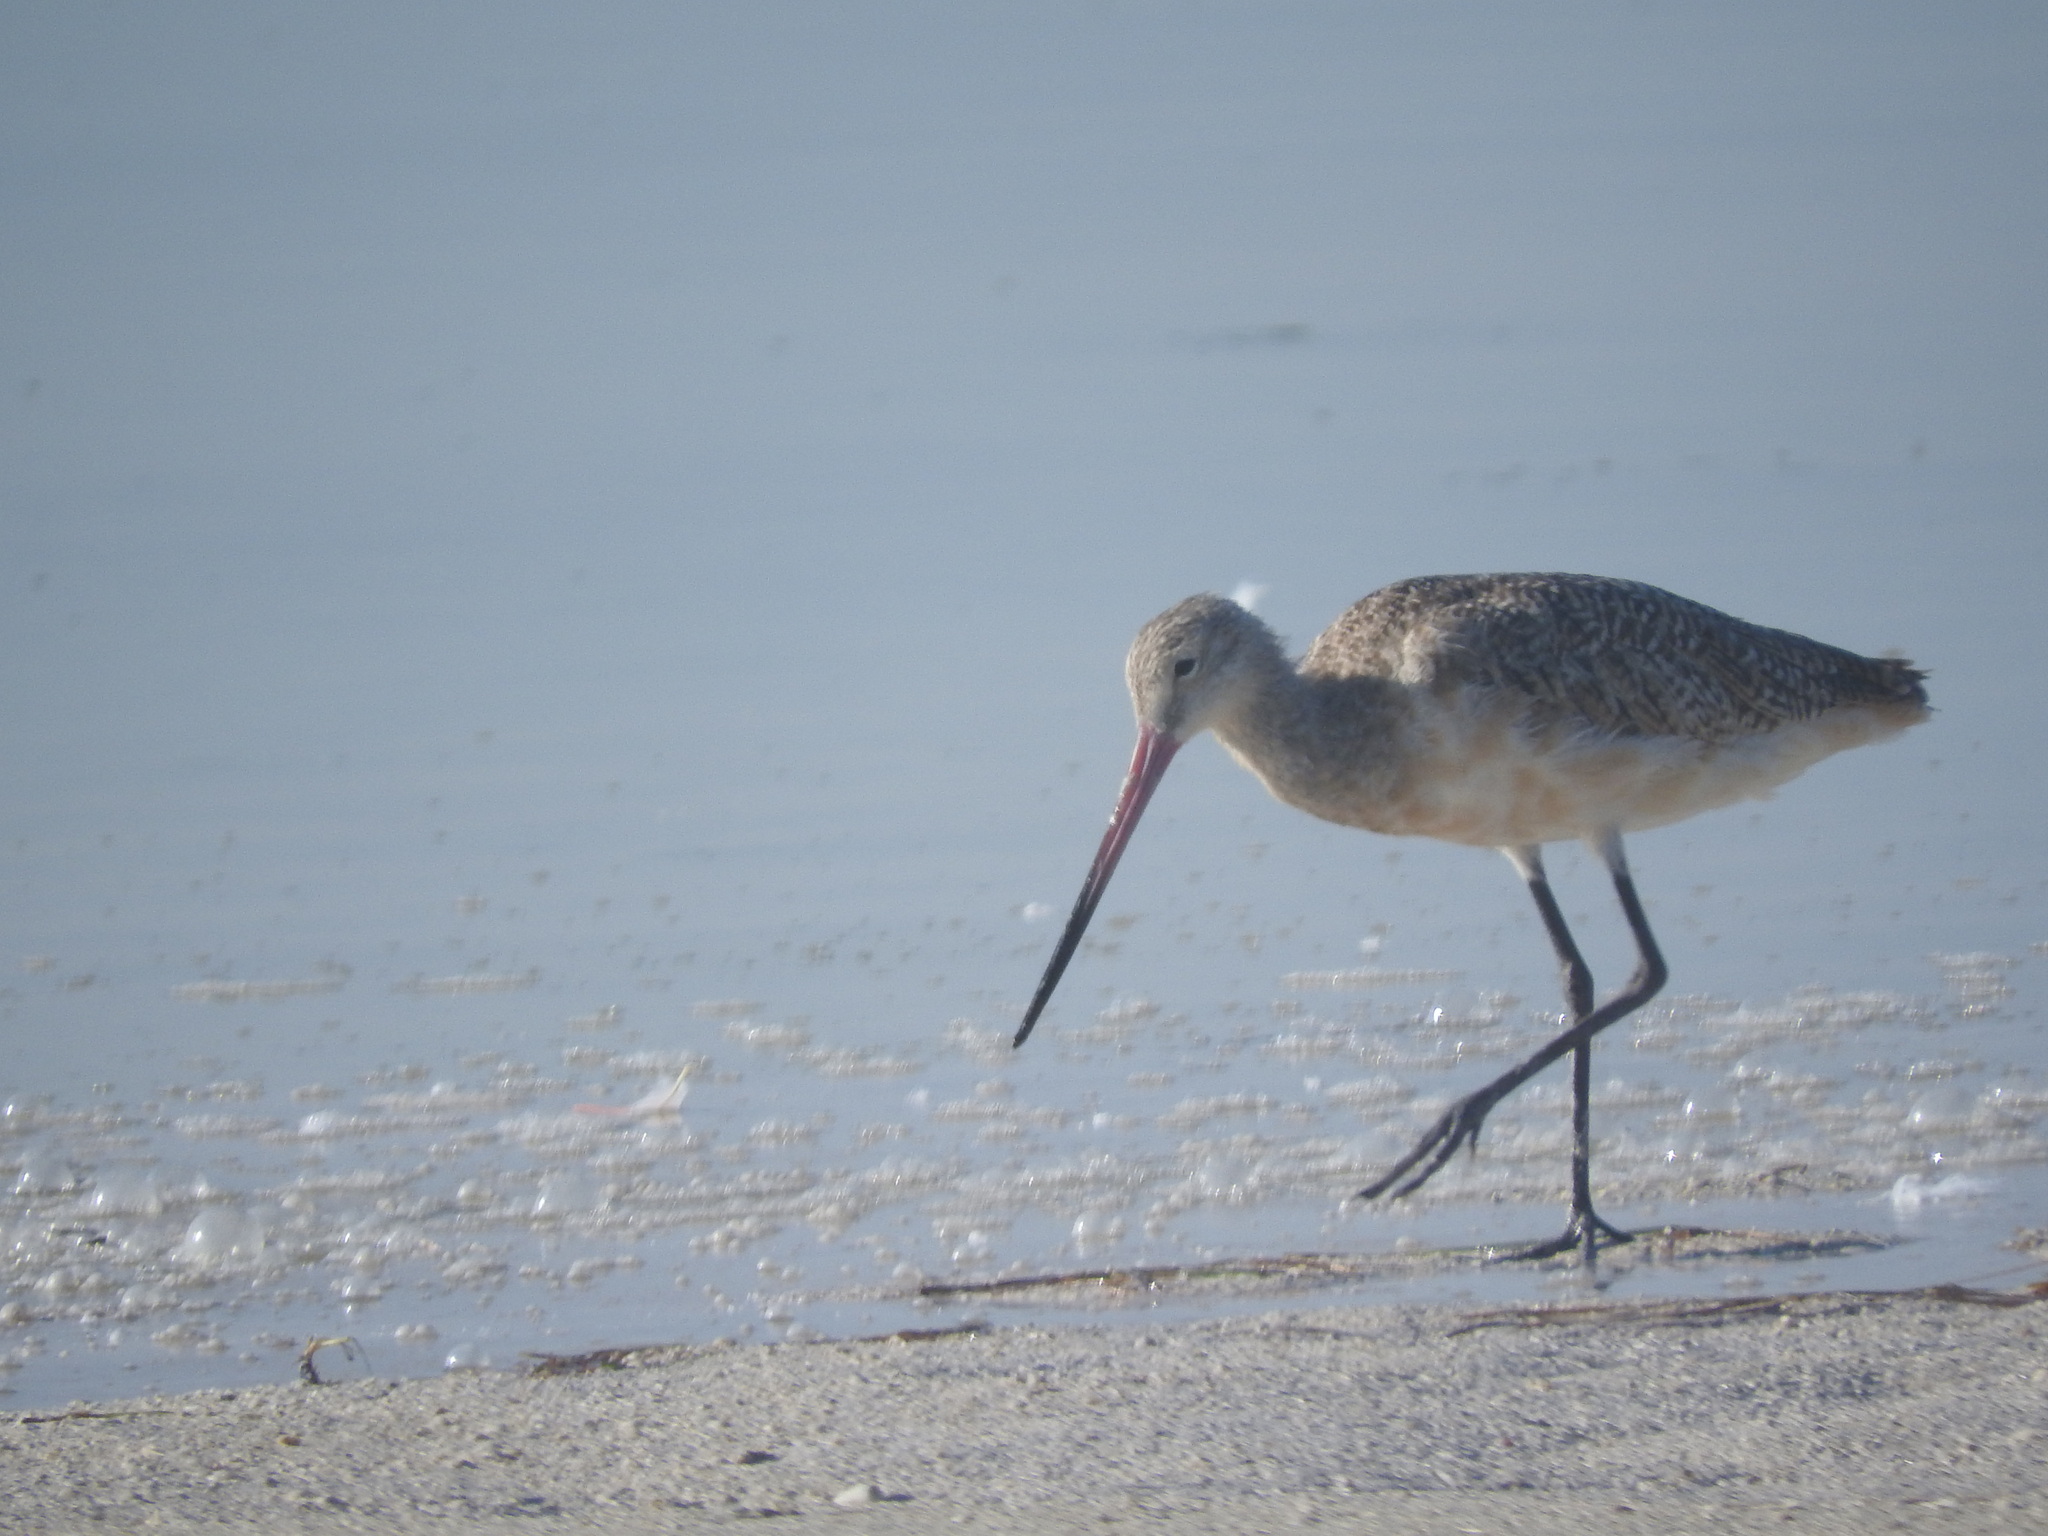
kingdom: Animalia
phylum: Chordata
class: Aves
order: Charadriiformes
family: Scolopacidae
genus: Limosa
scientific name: Limosa fedoa
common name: Marbled godwit
